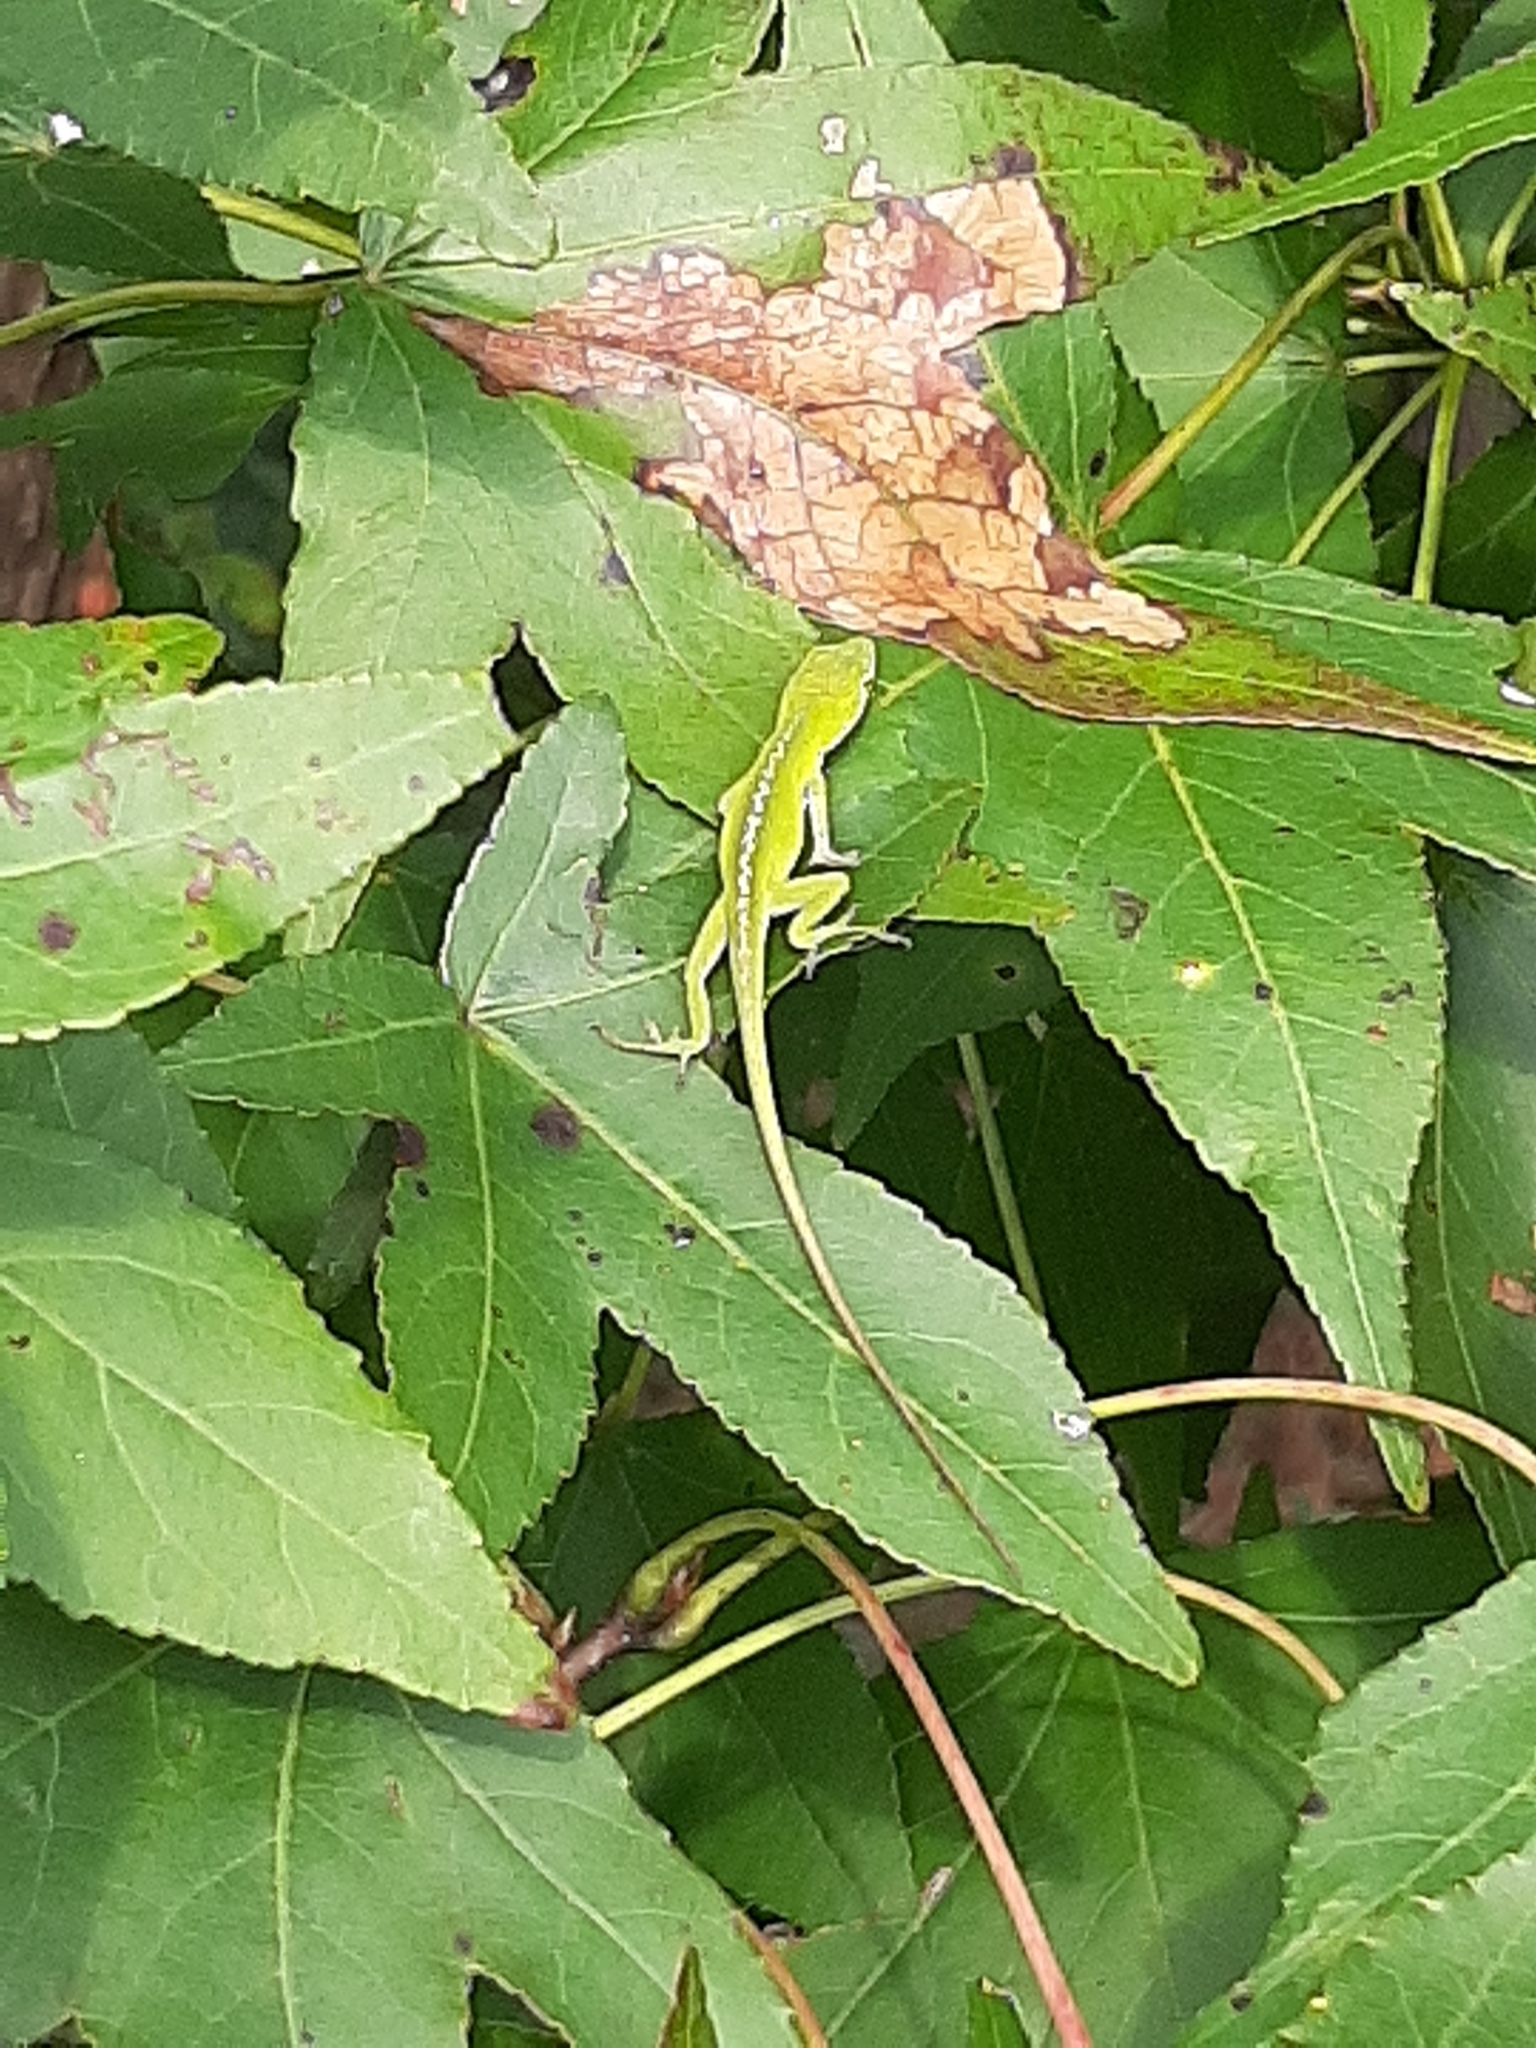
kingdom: Animalia
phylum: Chordata
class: Squamata
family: Dactyloidae
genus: Anolis
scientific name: Anolis carolinensis
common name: Green anole
